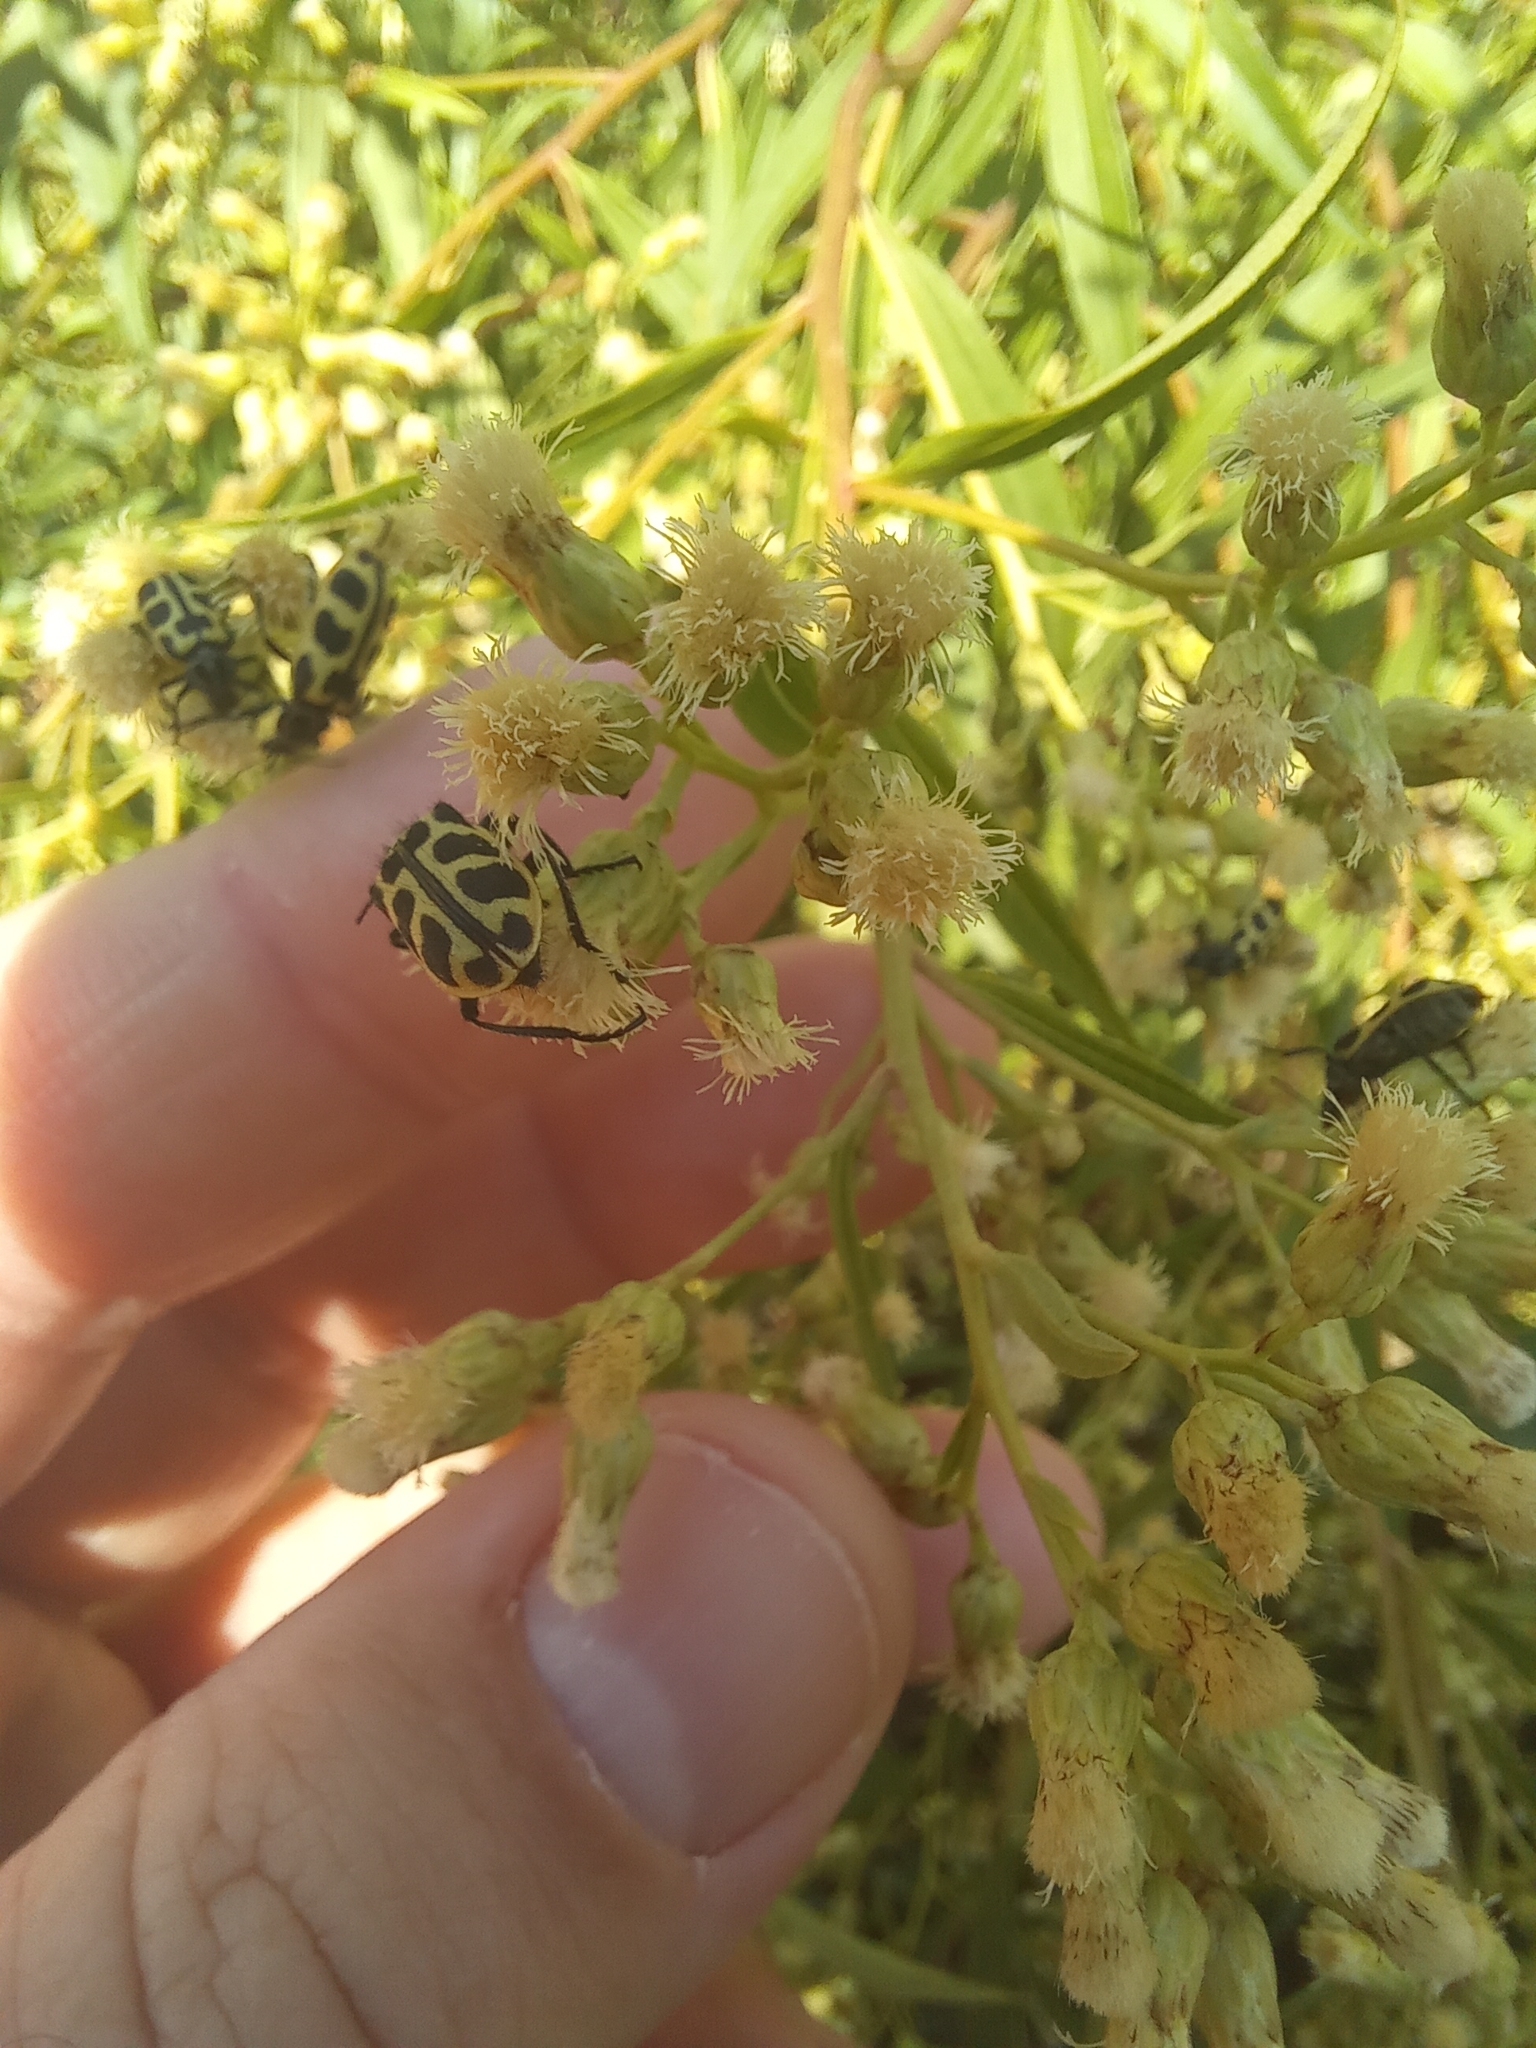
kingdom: Animalia
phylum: Arthropoda
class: Insecta
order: Coleoptera
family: Melyridae
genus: Astylus
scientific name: Astylus atromaculatus
